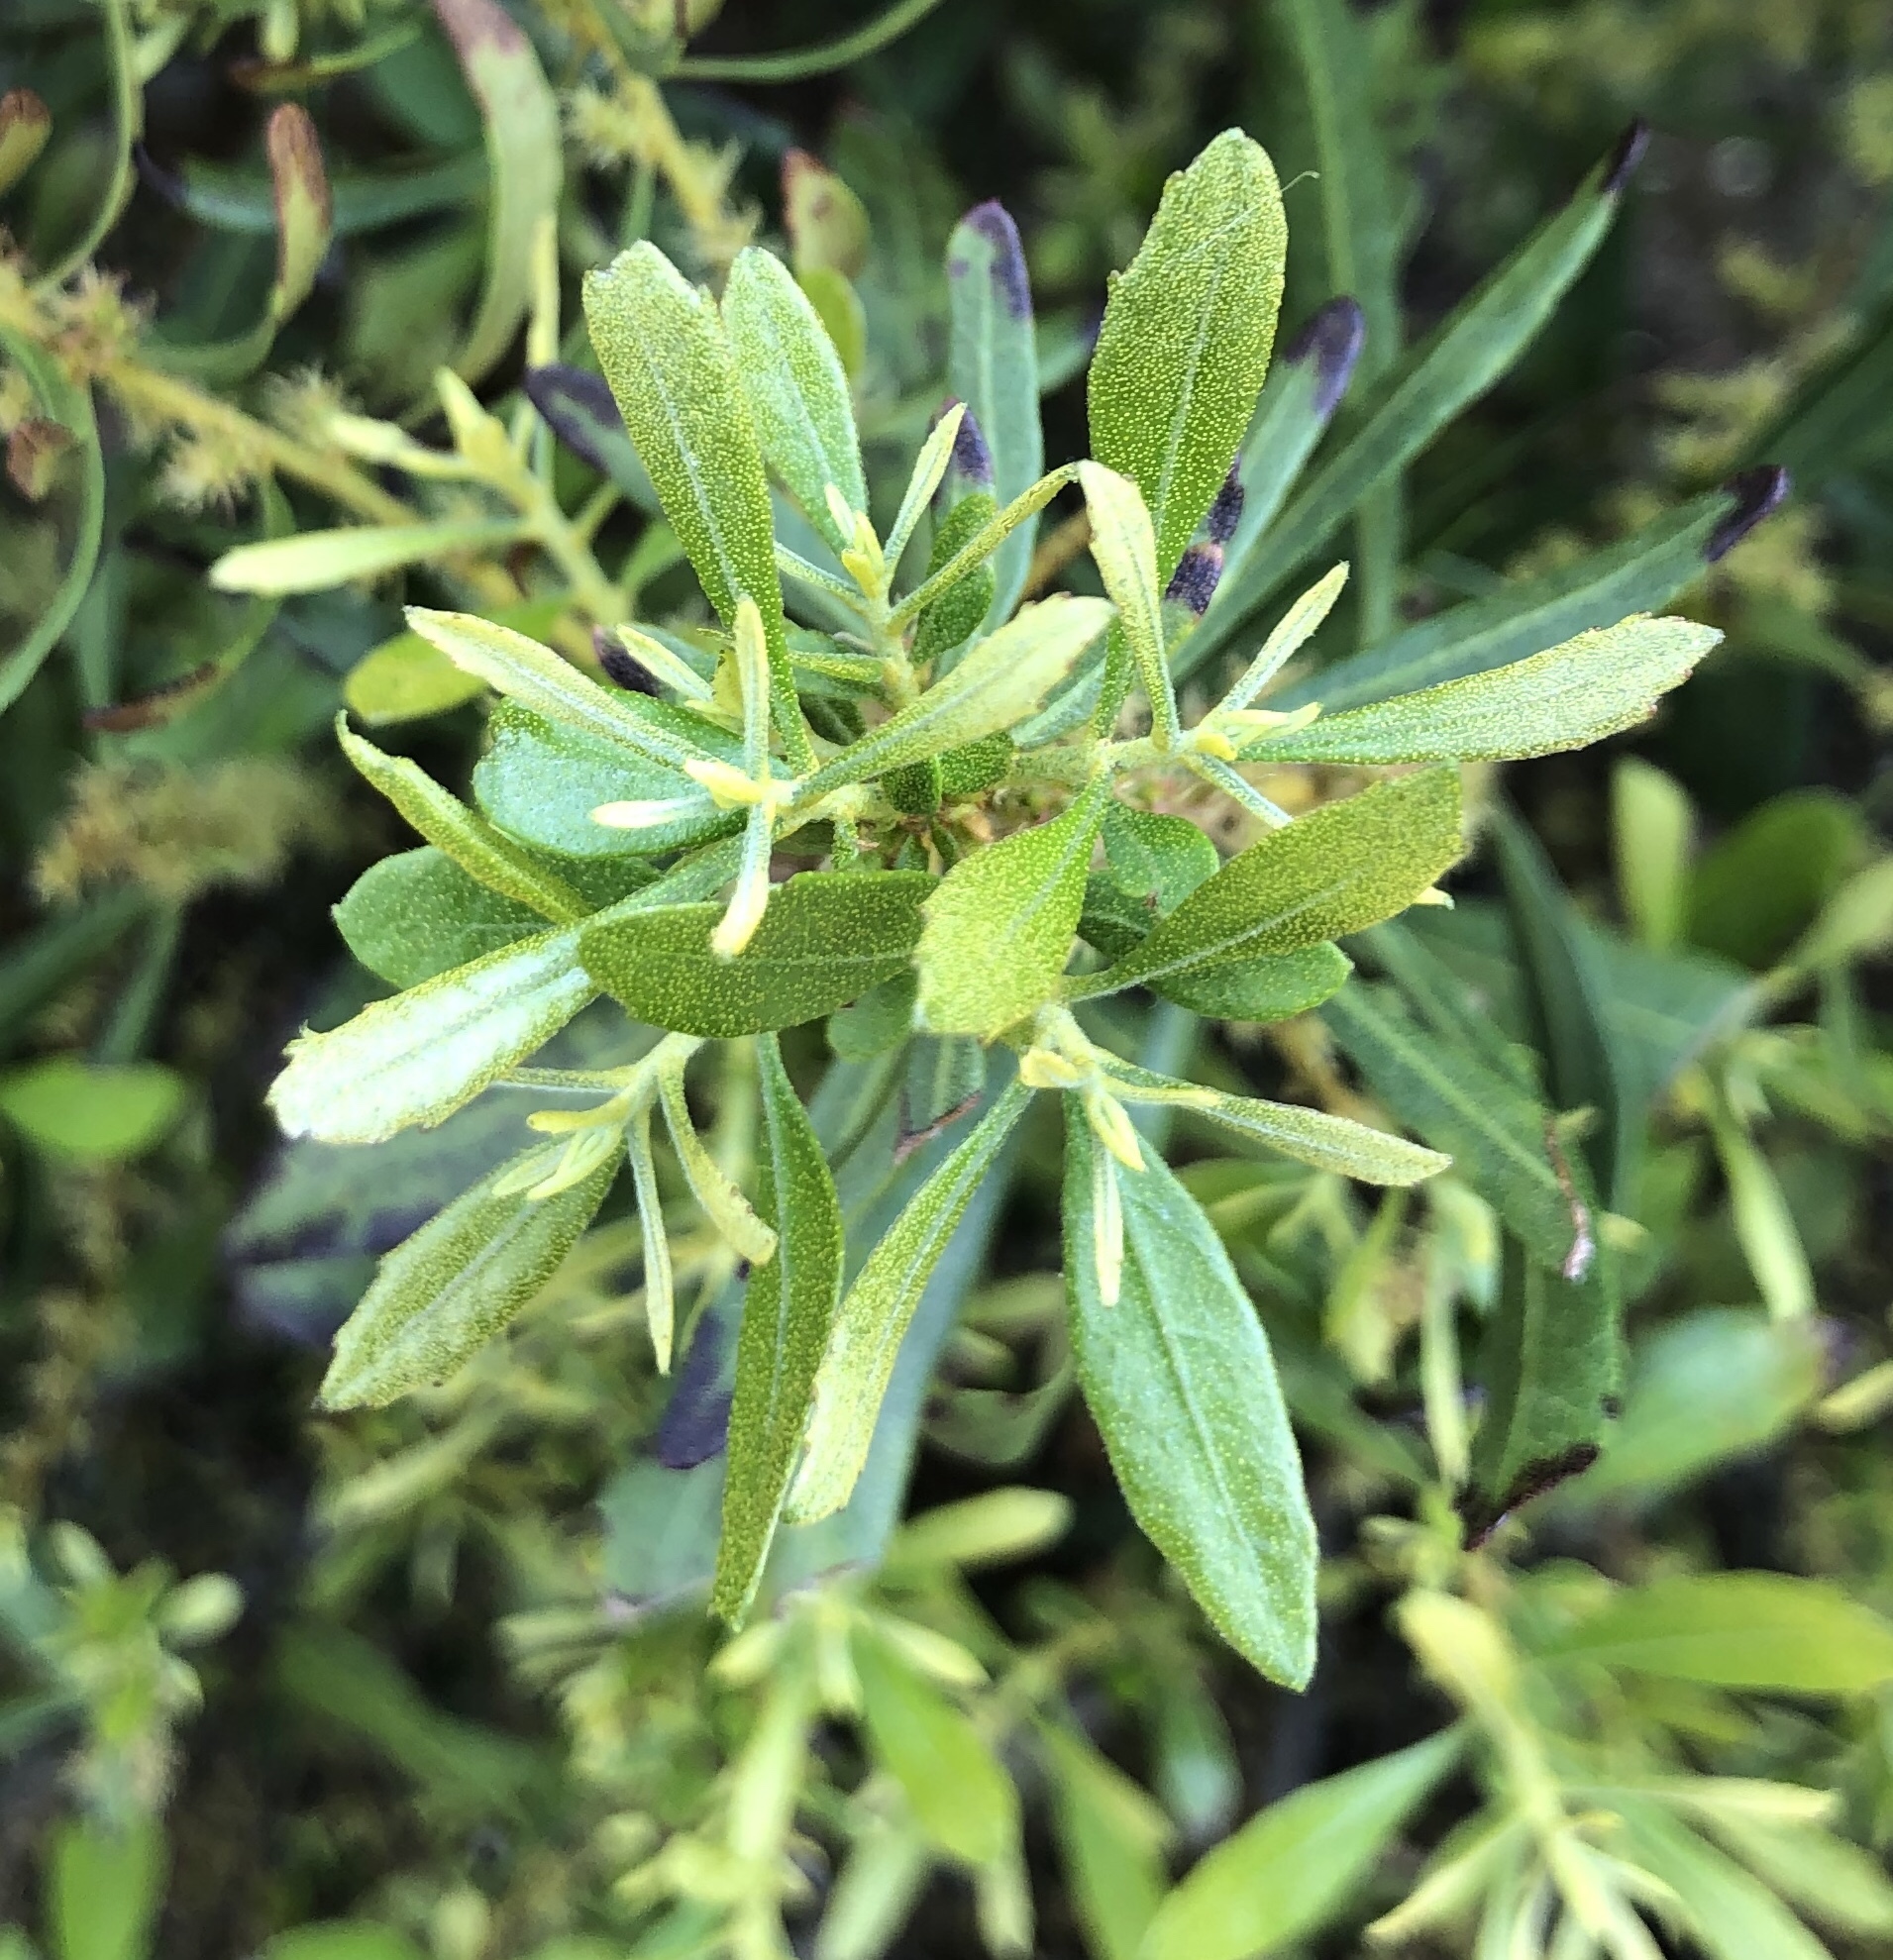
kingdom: Plantae
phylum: Tracheophyta
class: Magnoliopsida
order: Fagales
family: Myricaceae
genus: Morella
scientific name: Morella cerifera
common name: Wax myrtle
